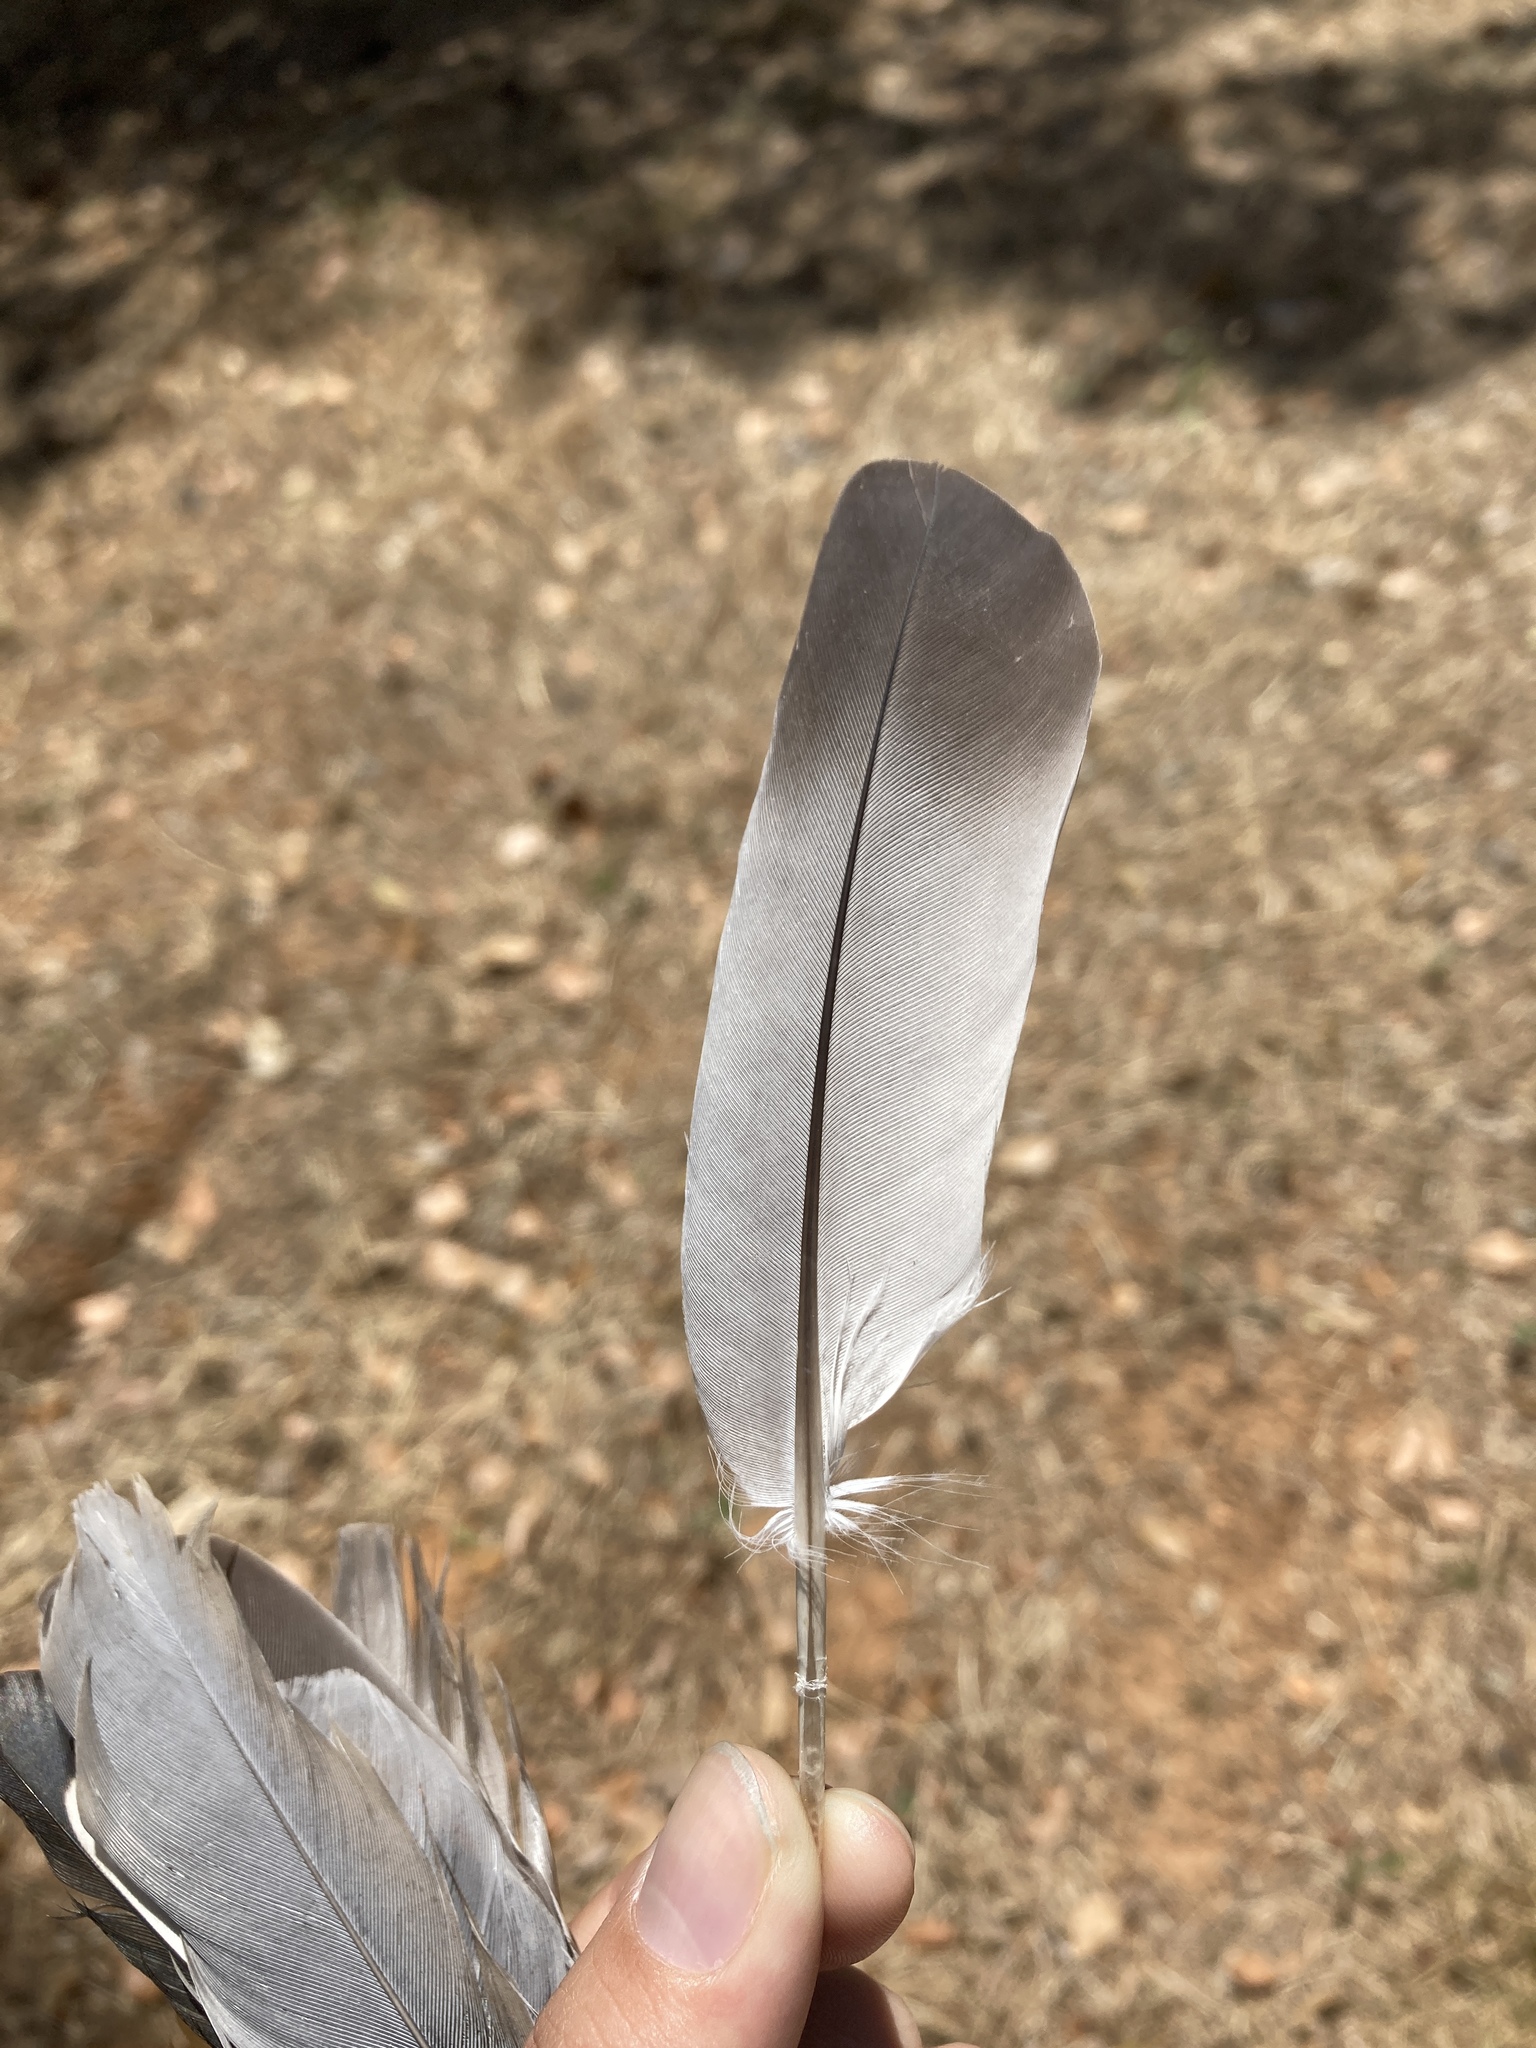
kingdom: Animalia
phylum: Chordata
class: Aves
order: Columbiformes
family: Columbidae
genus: Columba
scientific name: Columba livia
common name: Rock pigeon
